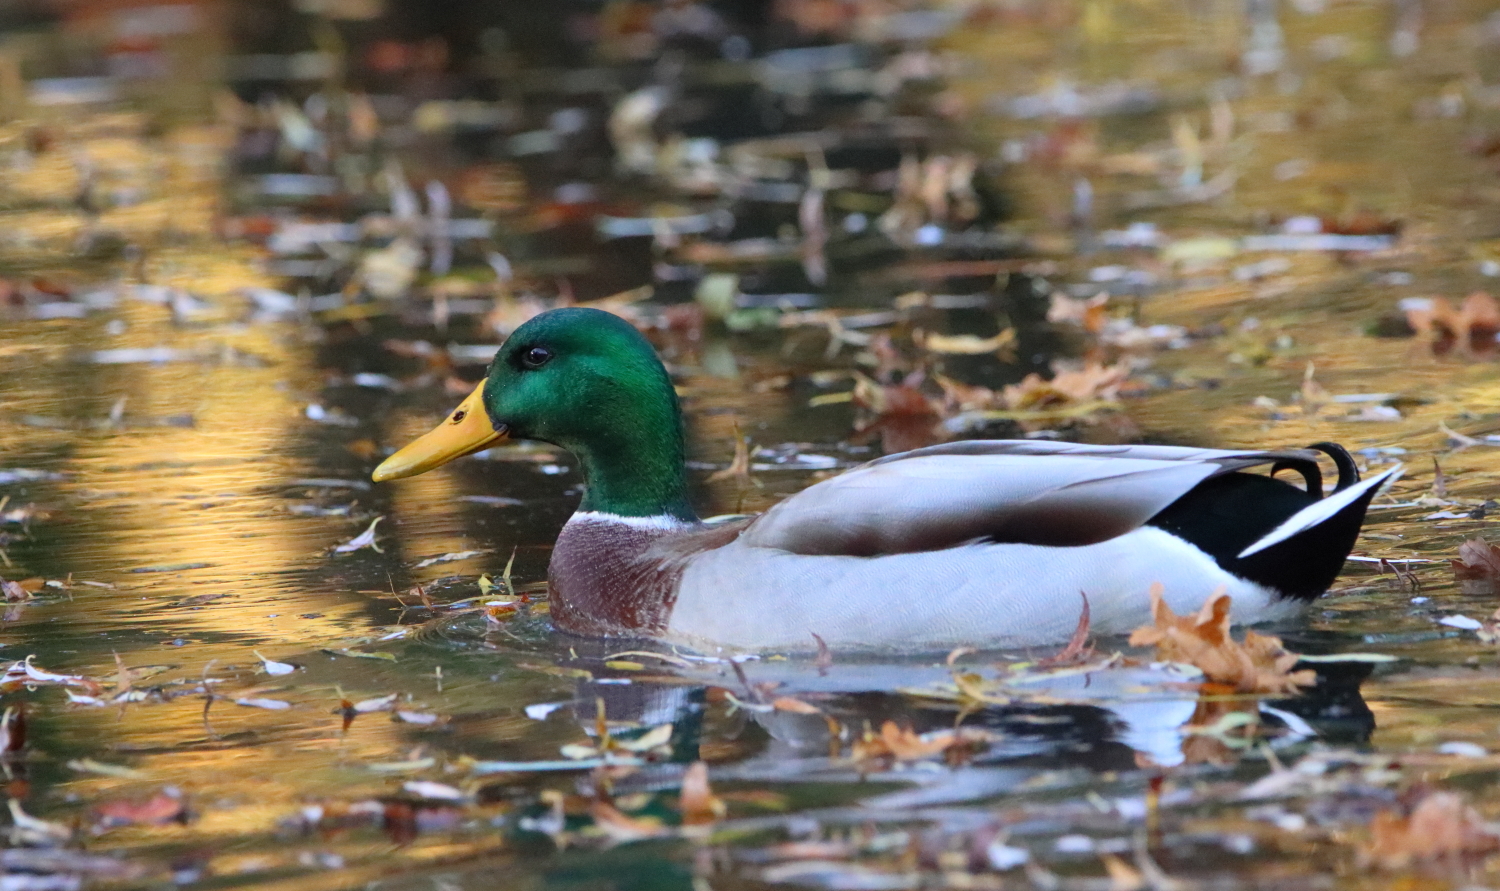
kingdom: Animalia
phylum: Chordata
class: Aves
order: Anseriformes
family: Anatidae
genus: Anas
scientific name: Anas platyrhynchos
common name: Mallard
